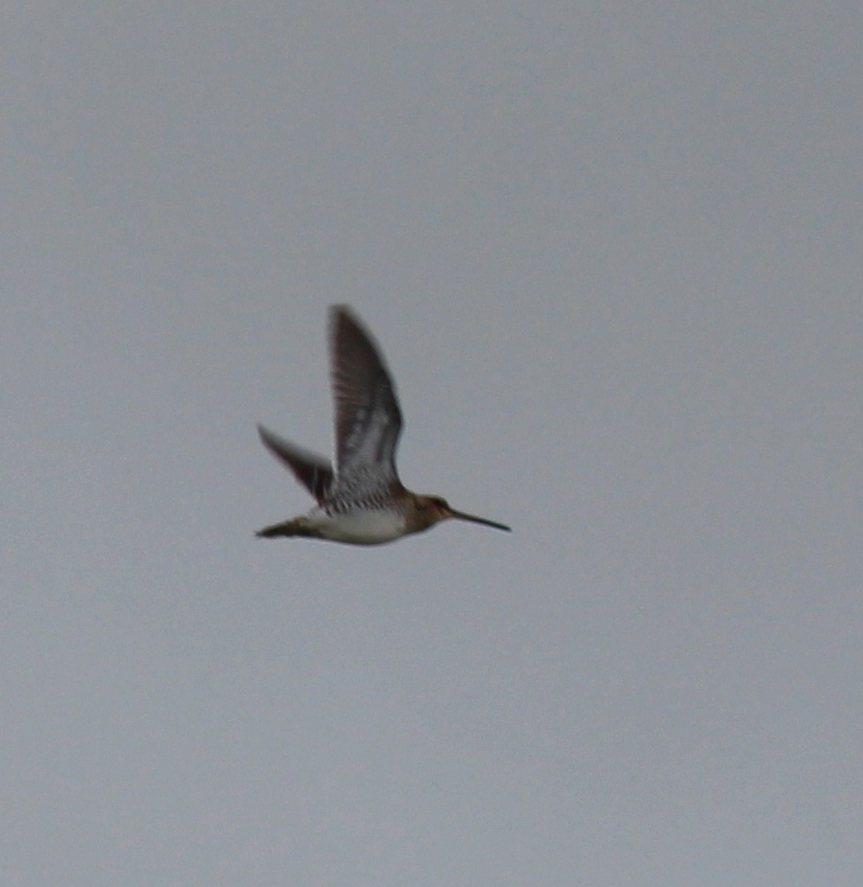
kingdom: Animalia
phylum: Chordata
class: Aves
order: Charadriiformes
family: Scolopacidae
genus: Gallinago
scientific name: Gallinago gallinago
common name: Common snipe
